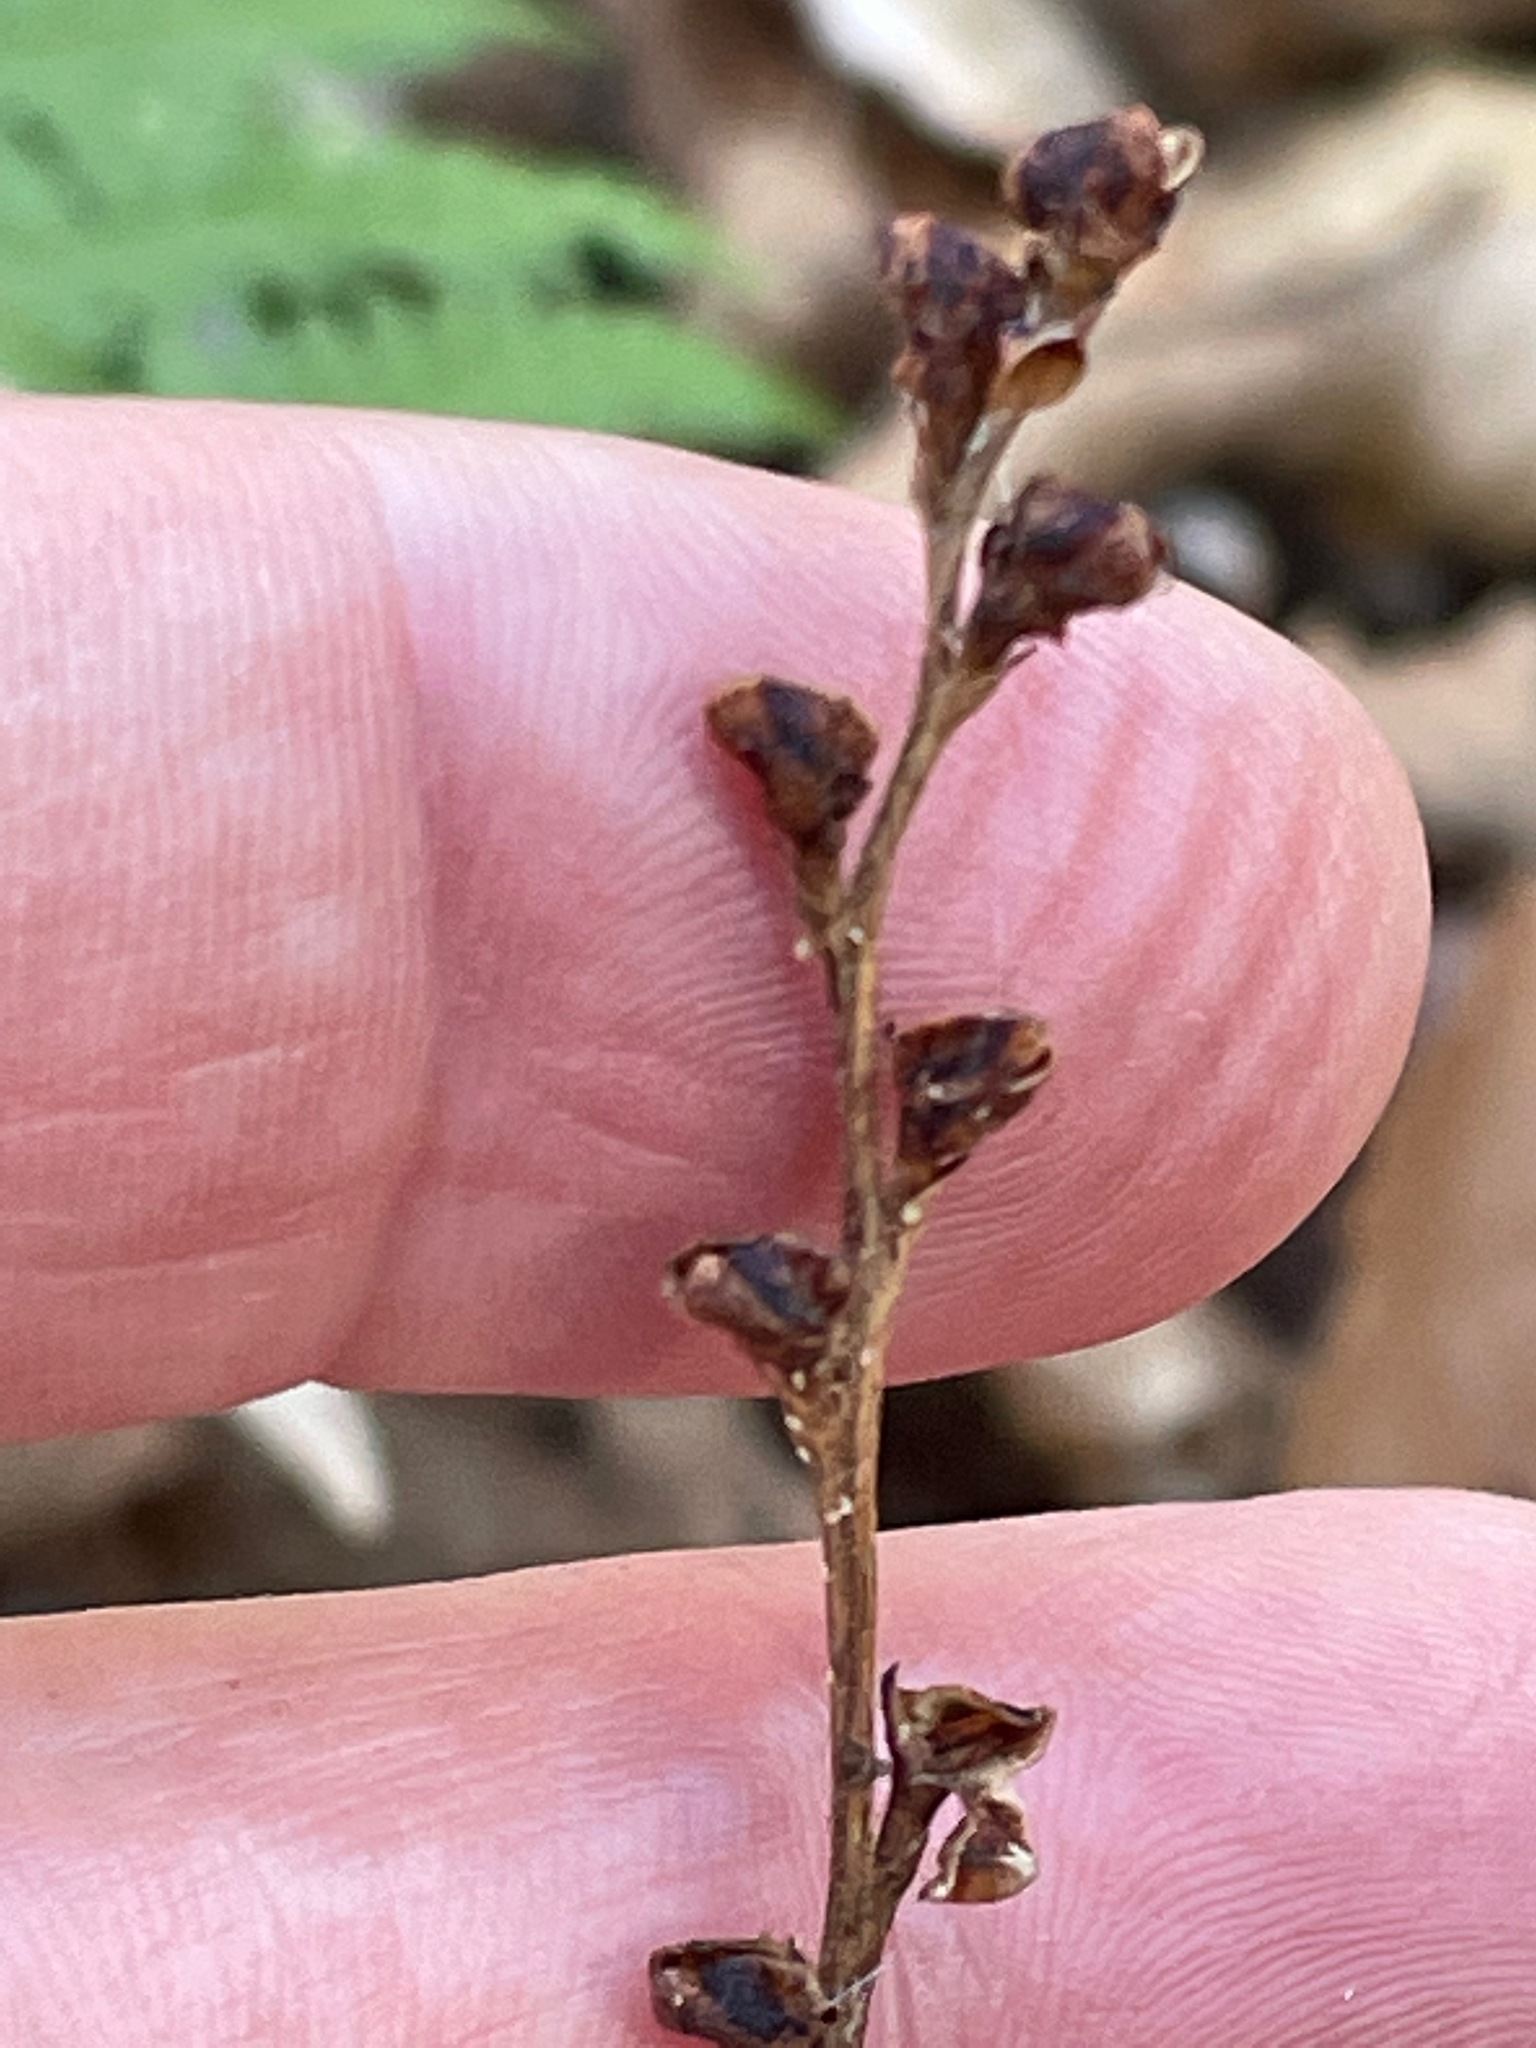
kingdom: Plantae
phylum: Tracheophyta
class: Magnoliopsida
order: Lamiales
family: Orobanchaceae
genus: Epifagus
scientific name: Epifagus virginiana
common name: Beechdrops
